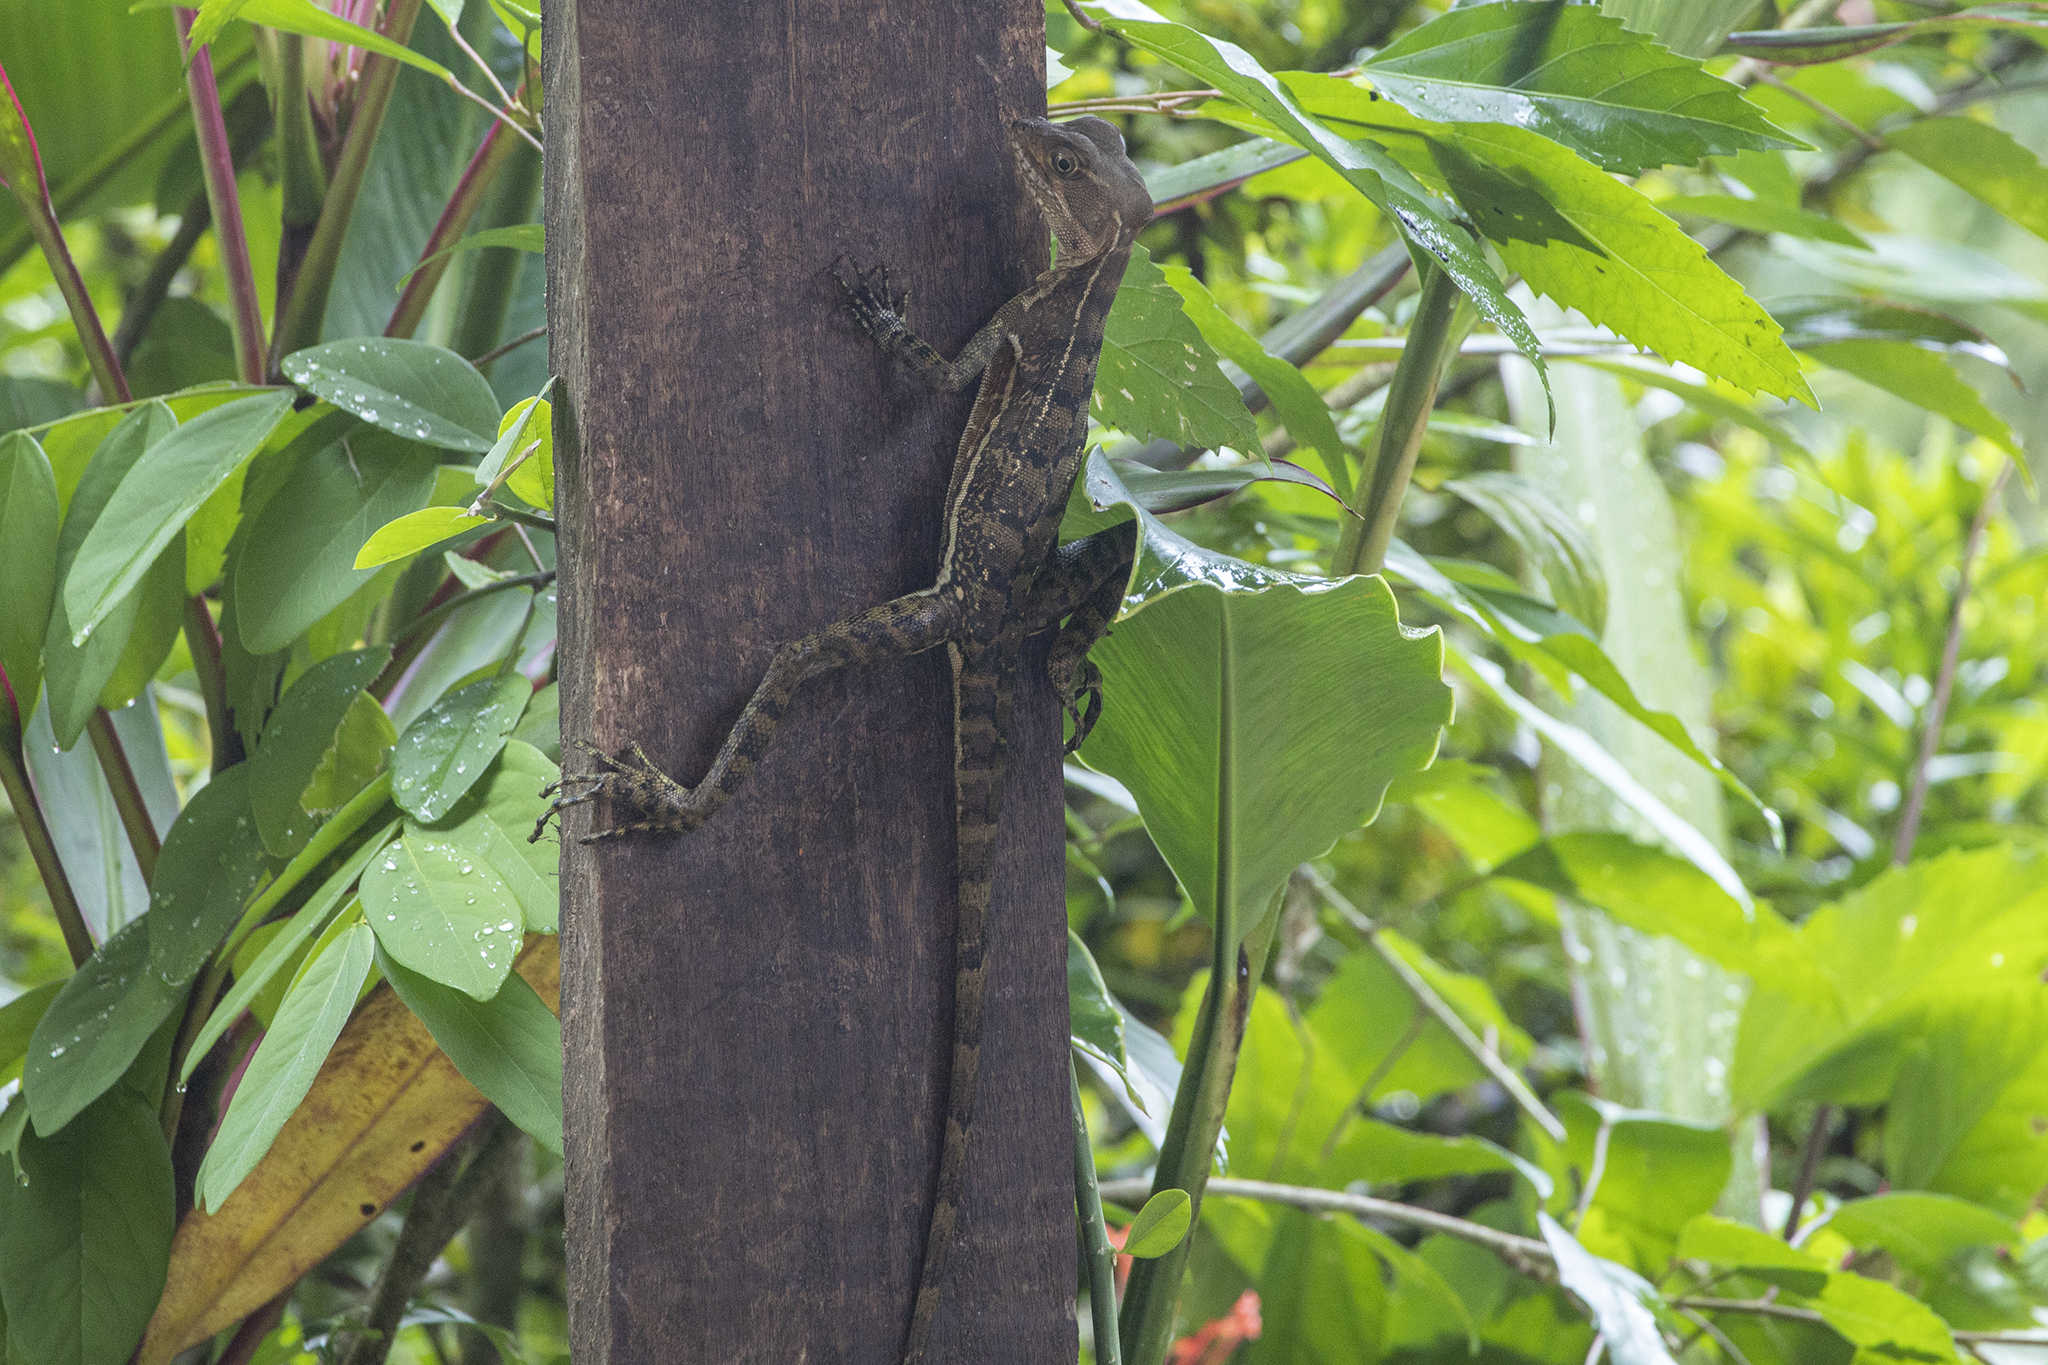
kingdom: Animalia
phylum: Chordata
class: Squamata
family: Corytophanidae
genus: Basiliscus
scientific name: Basiliscus galeritus
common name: Western basilisk
